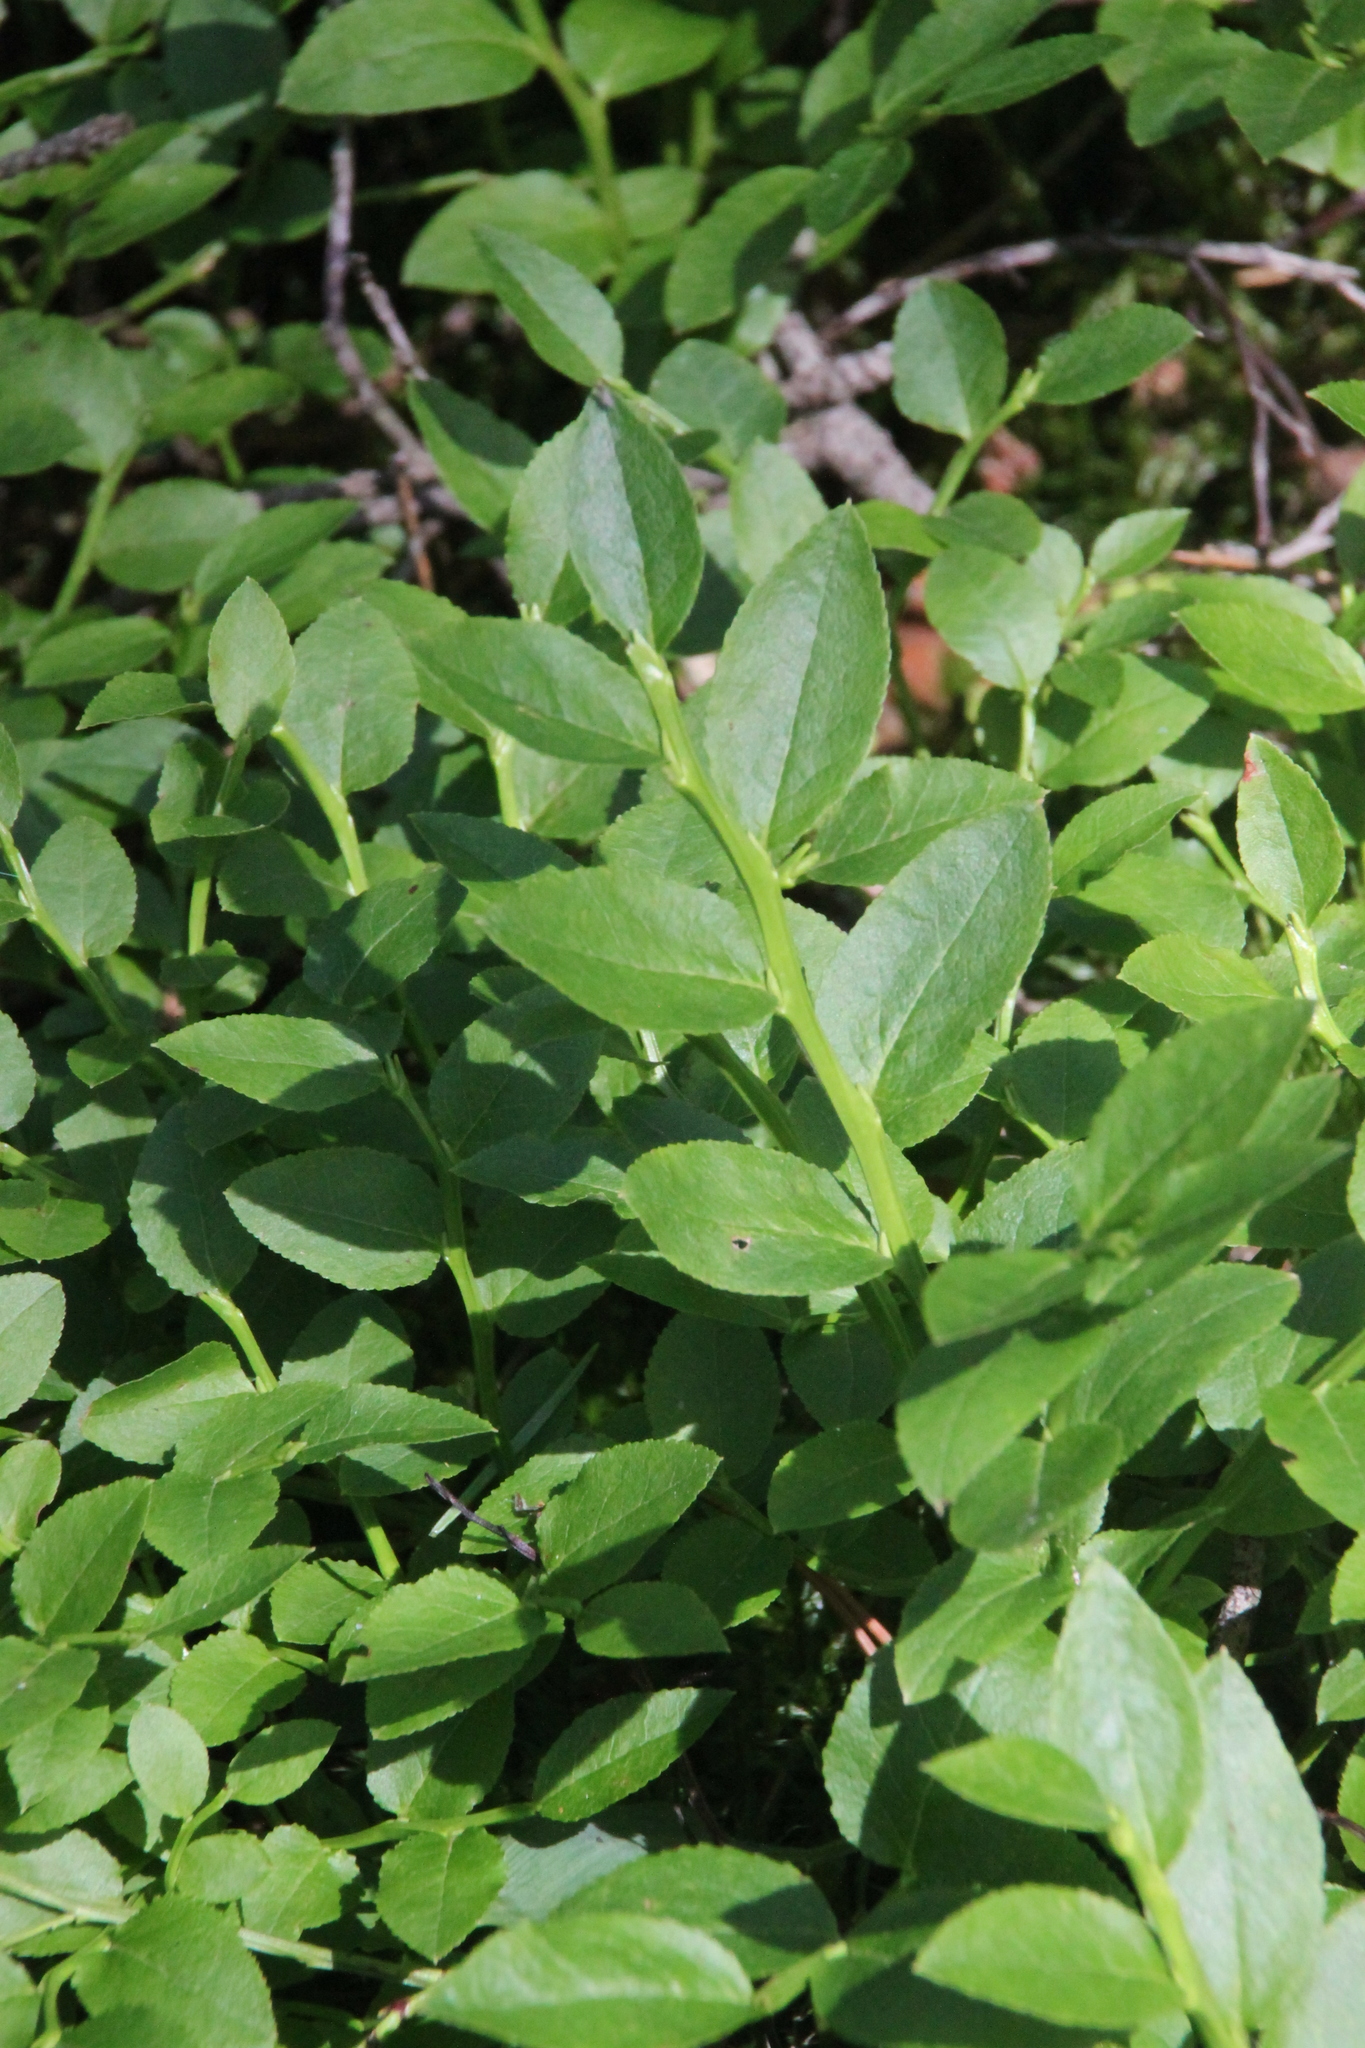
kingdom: Plantae
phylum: Tracheophyta
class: Magnoliopsida
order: Ericales
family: Ericaceae
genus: Vaccinium
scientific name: Vaccinium myrtillus
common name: Bilberry
